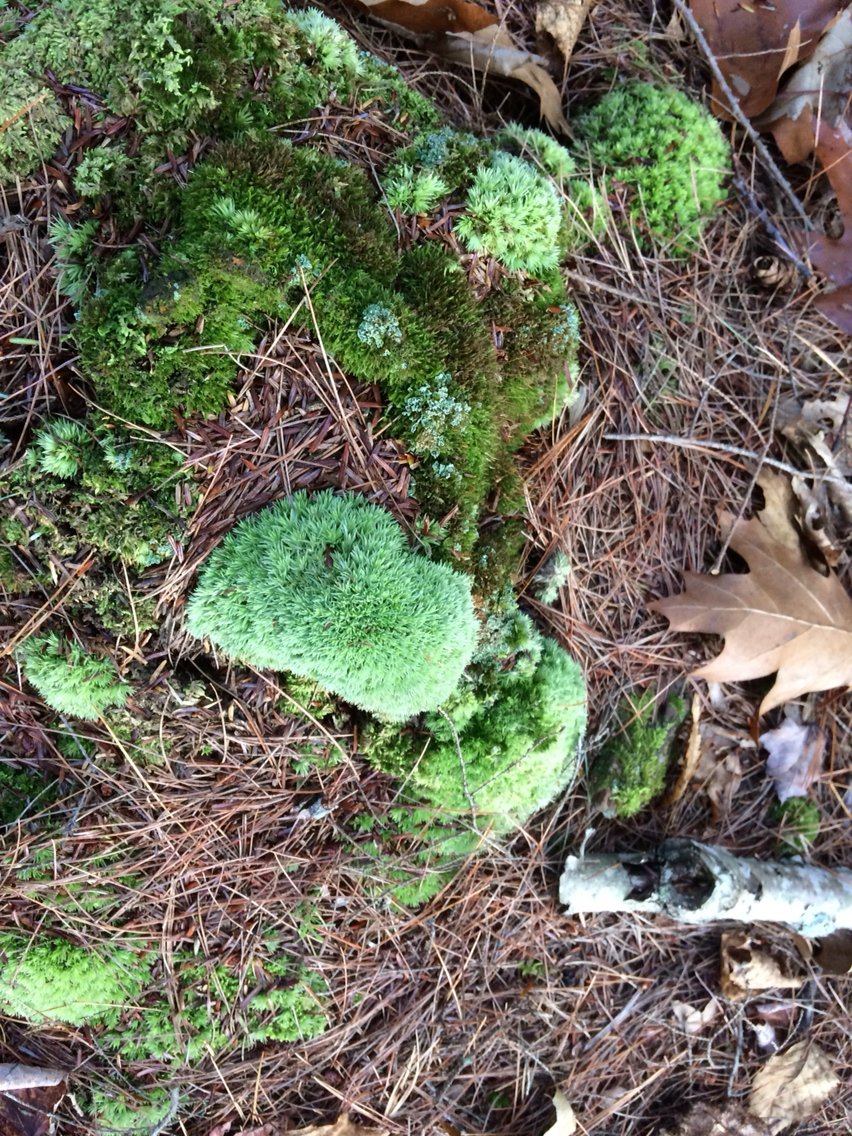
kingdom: Plantae
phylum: Bryophyta
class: Bryopsida
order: Dicranales
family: Leucobryaceae
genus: Leucobryum
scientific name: Leucobryum glaucum
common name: Large white-moss
